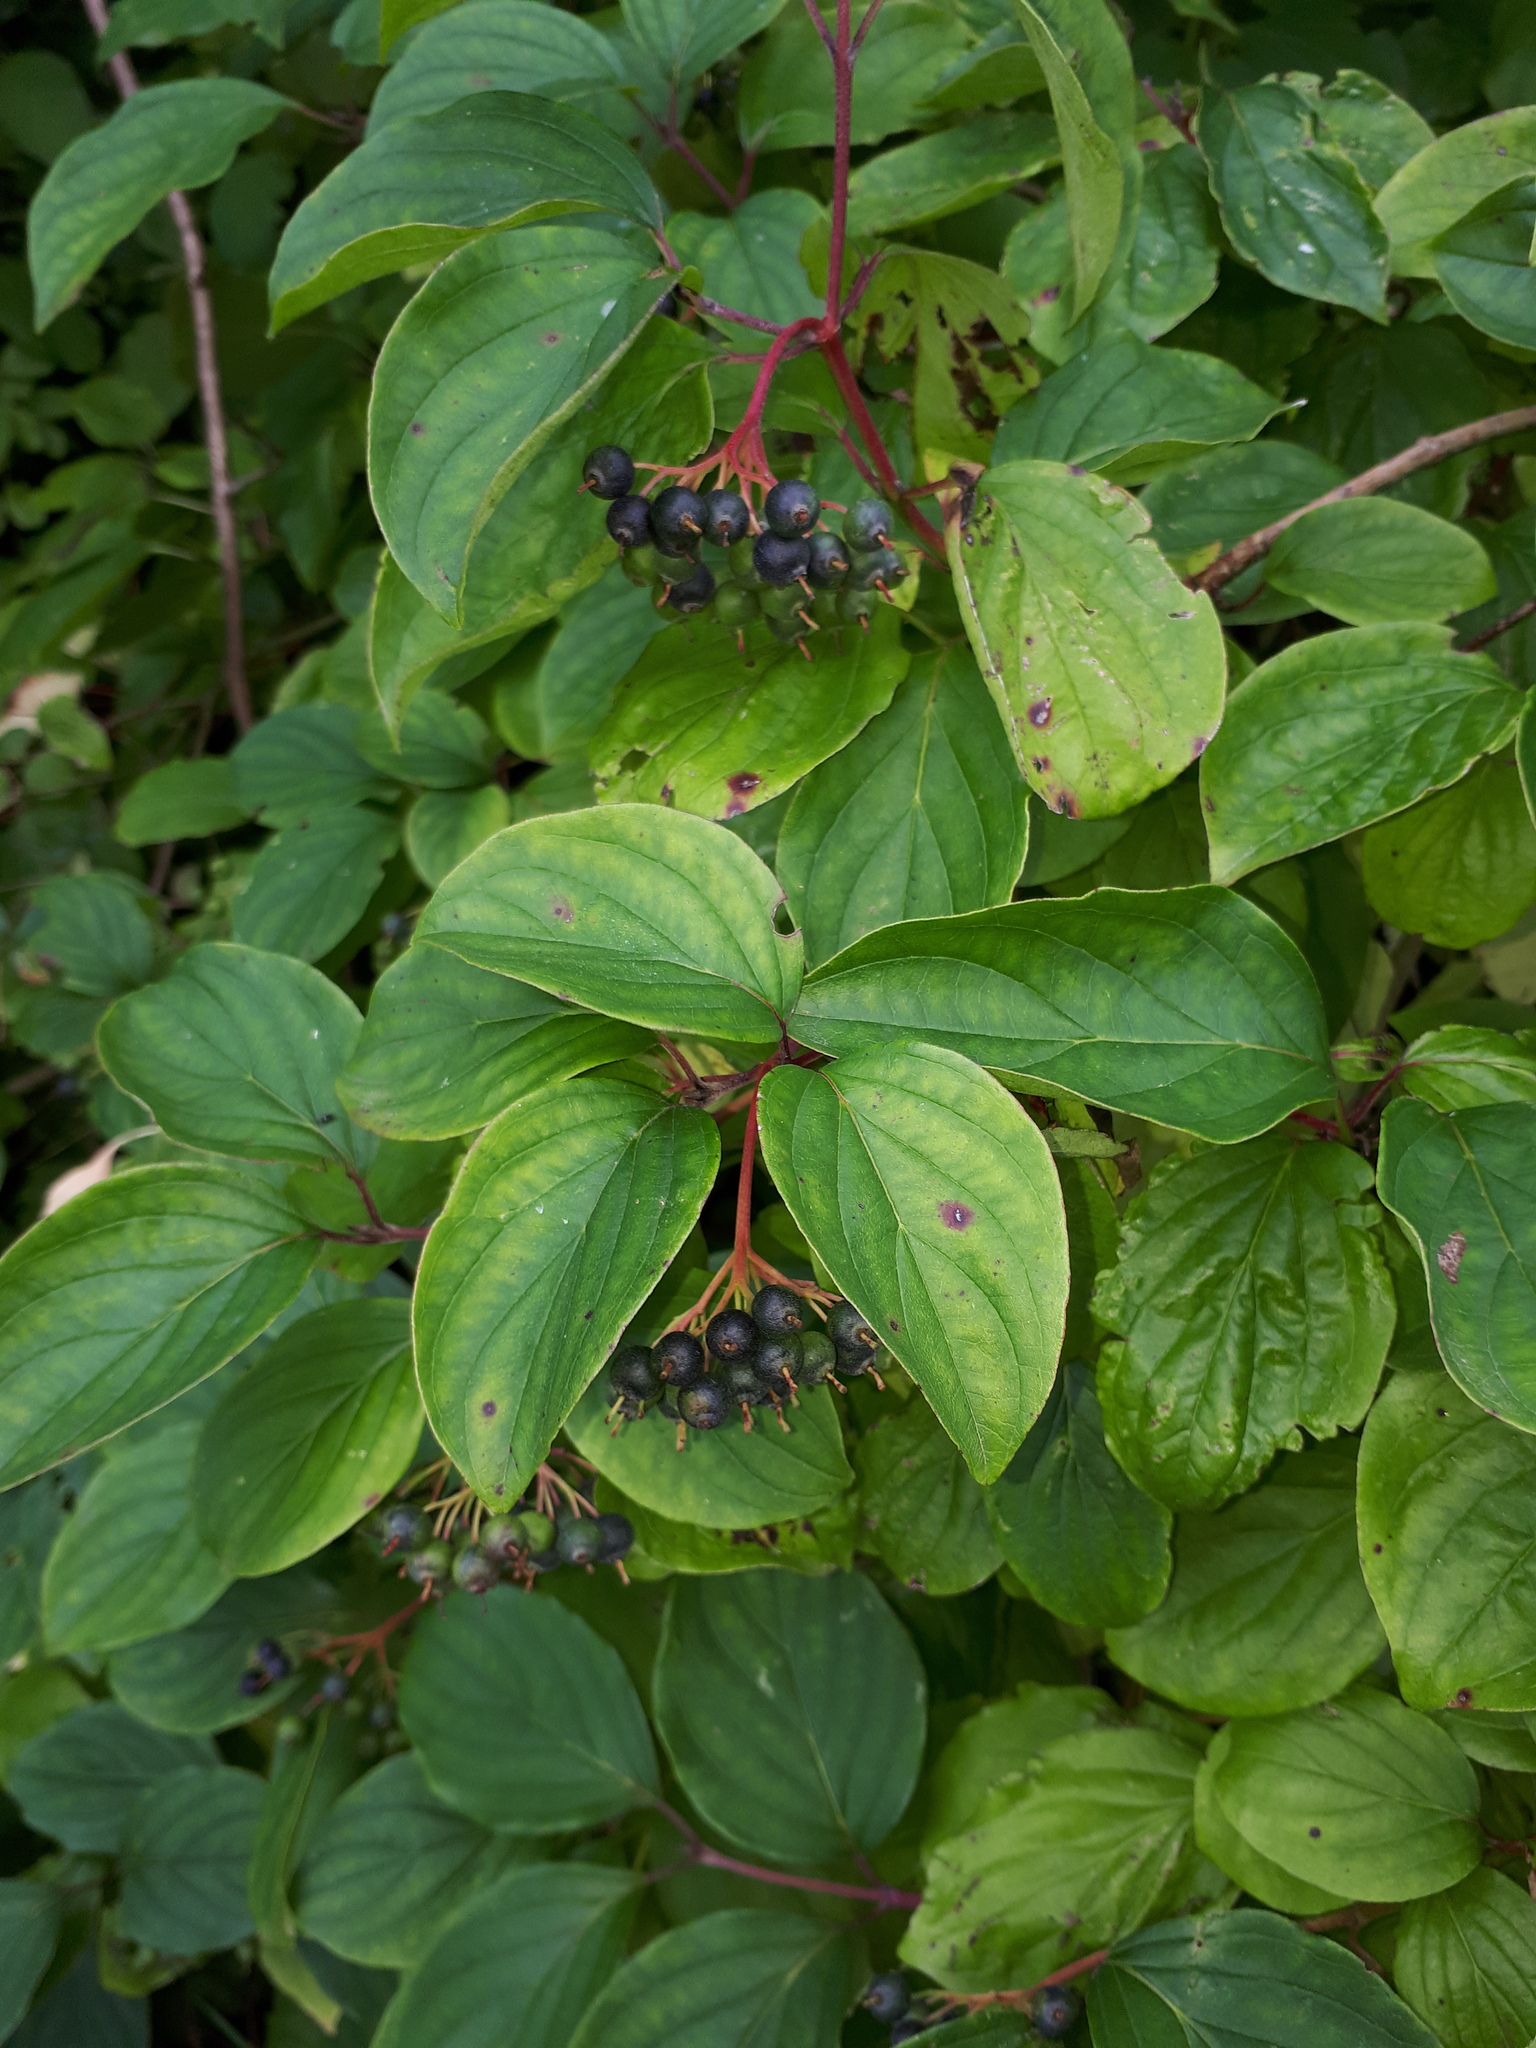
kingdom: Plantae
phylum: Tracheophyta
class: Magnoliopsida
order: Cornales
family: Cornaceae
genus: Cornus
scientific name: Cornus sanguinea
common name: Dogwood
